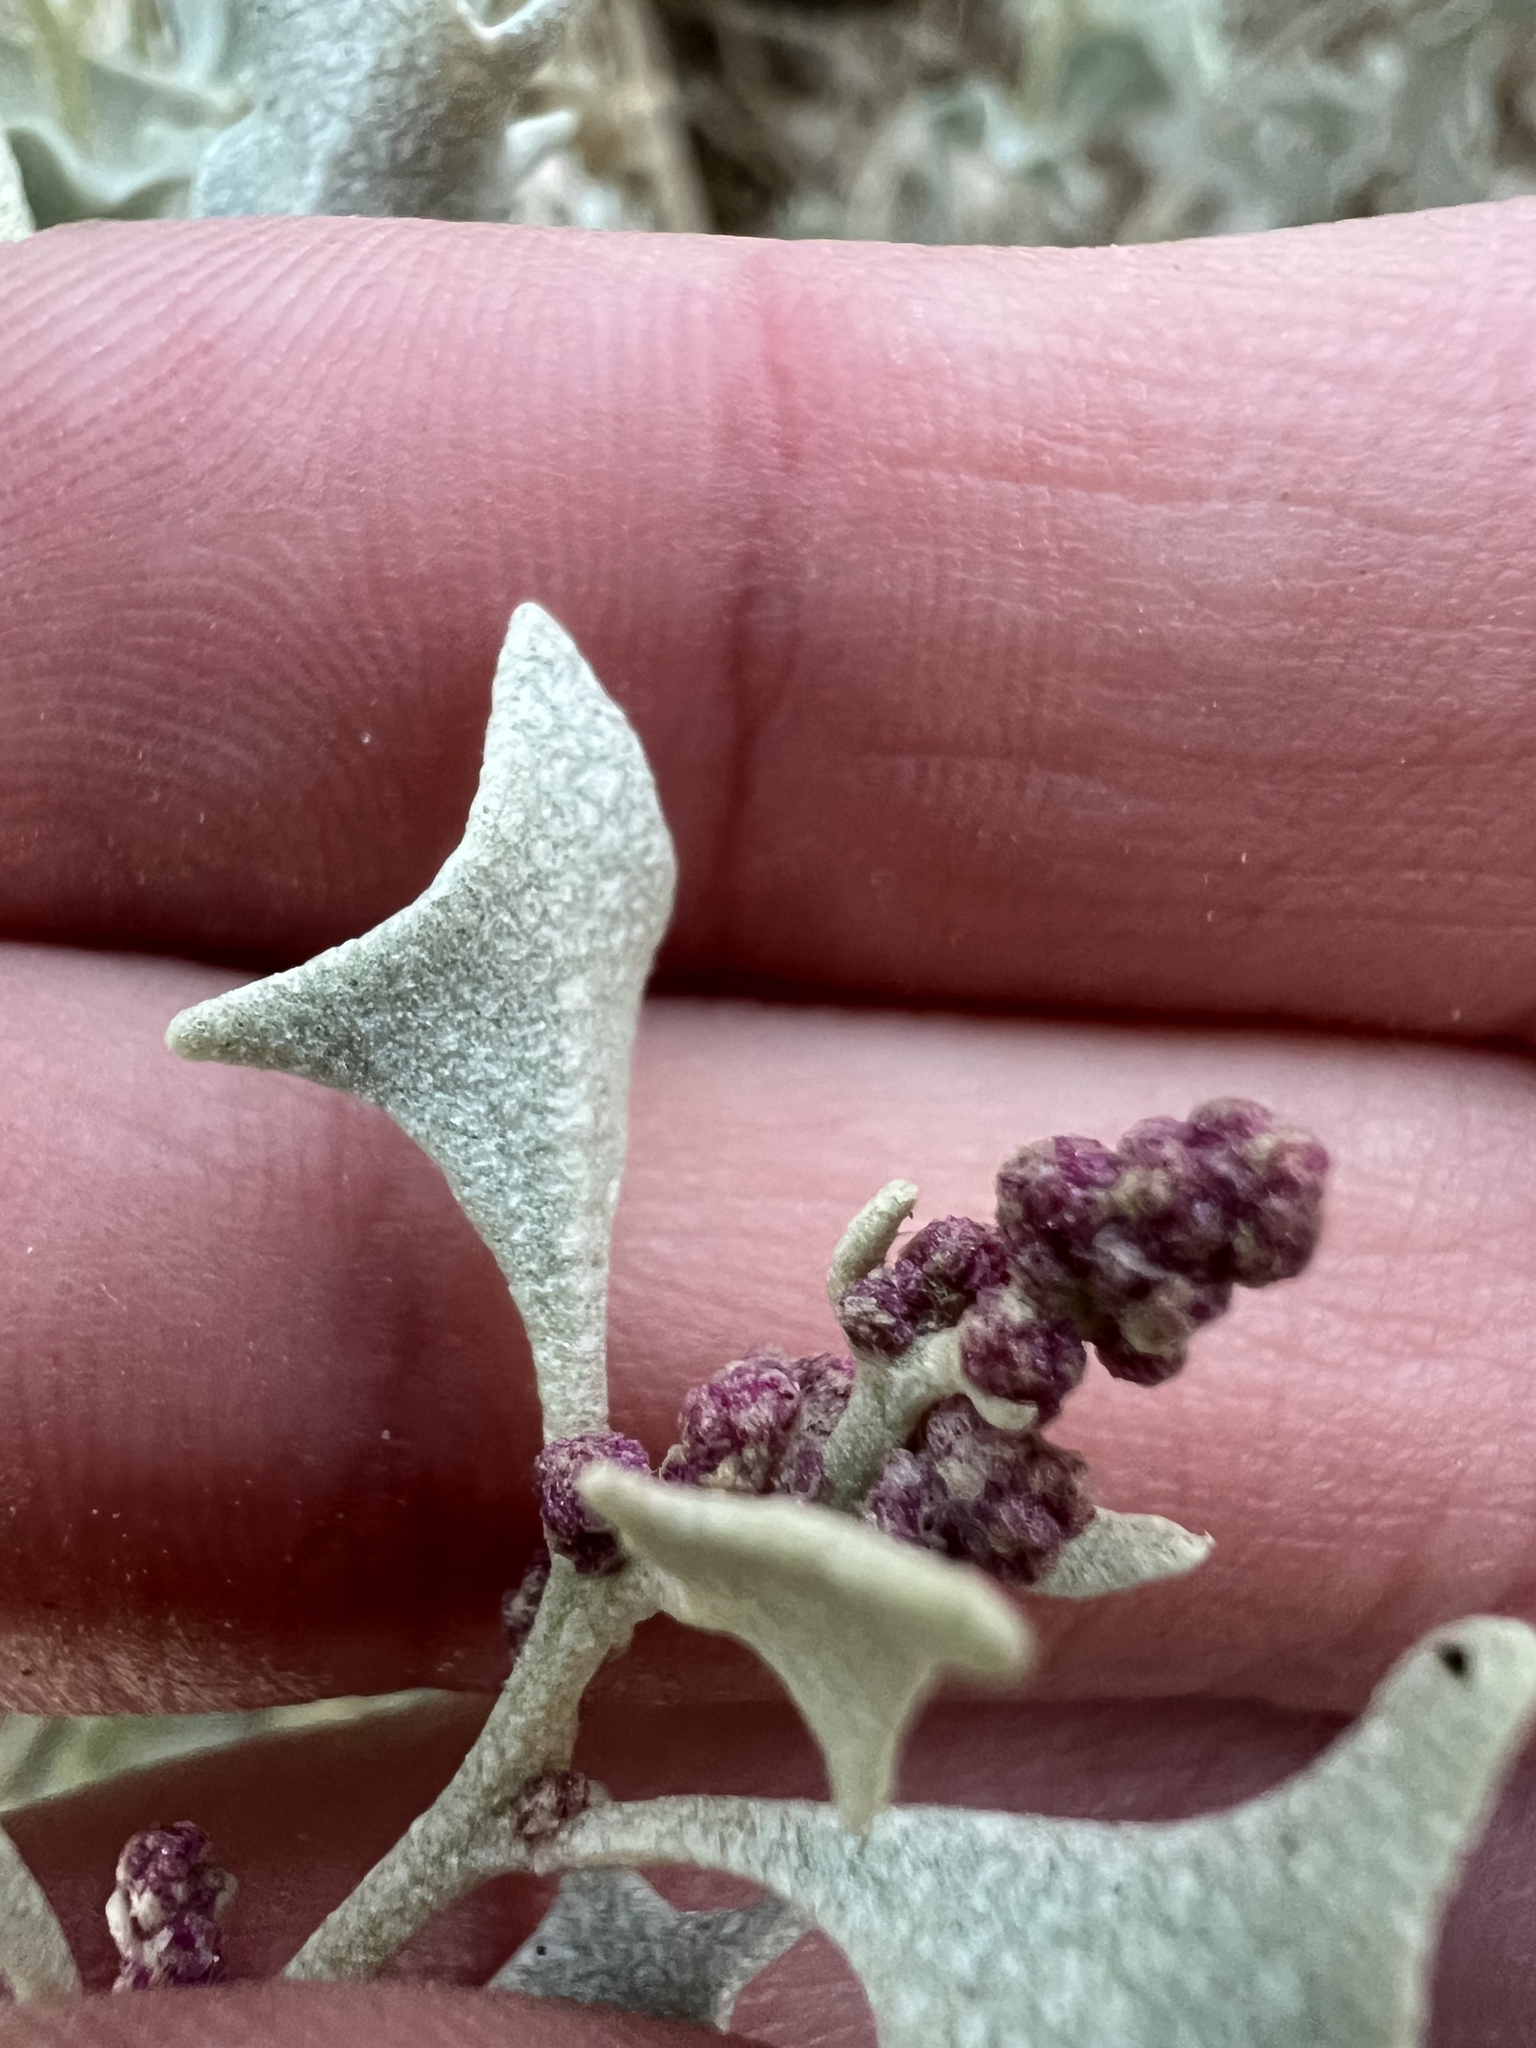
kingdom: Plantae
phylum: Tracheophyta
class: Magnoliopsida
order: Caryophyllales
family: Amaranthaceae
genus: Atriplex
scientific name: Atriplex hymenelytra
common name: Desert-holly
